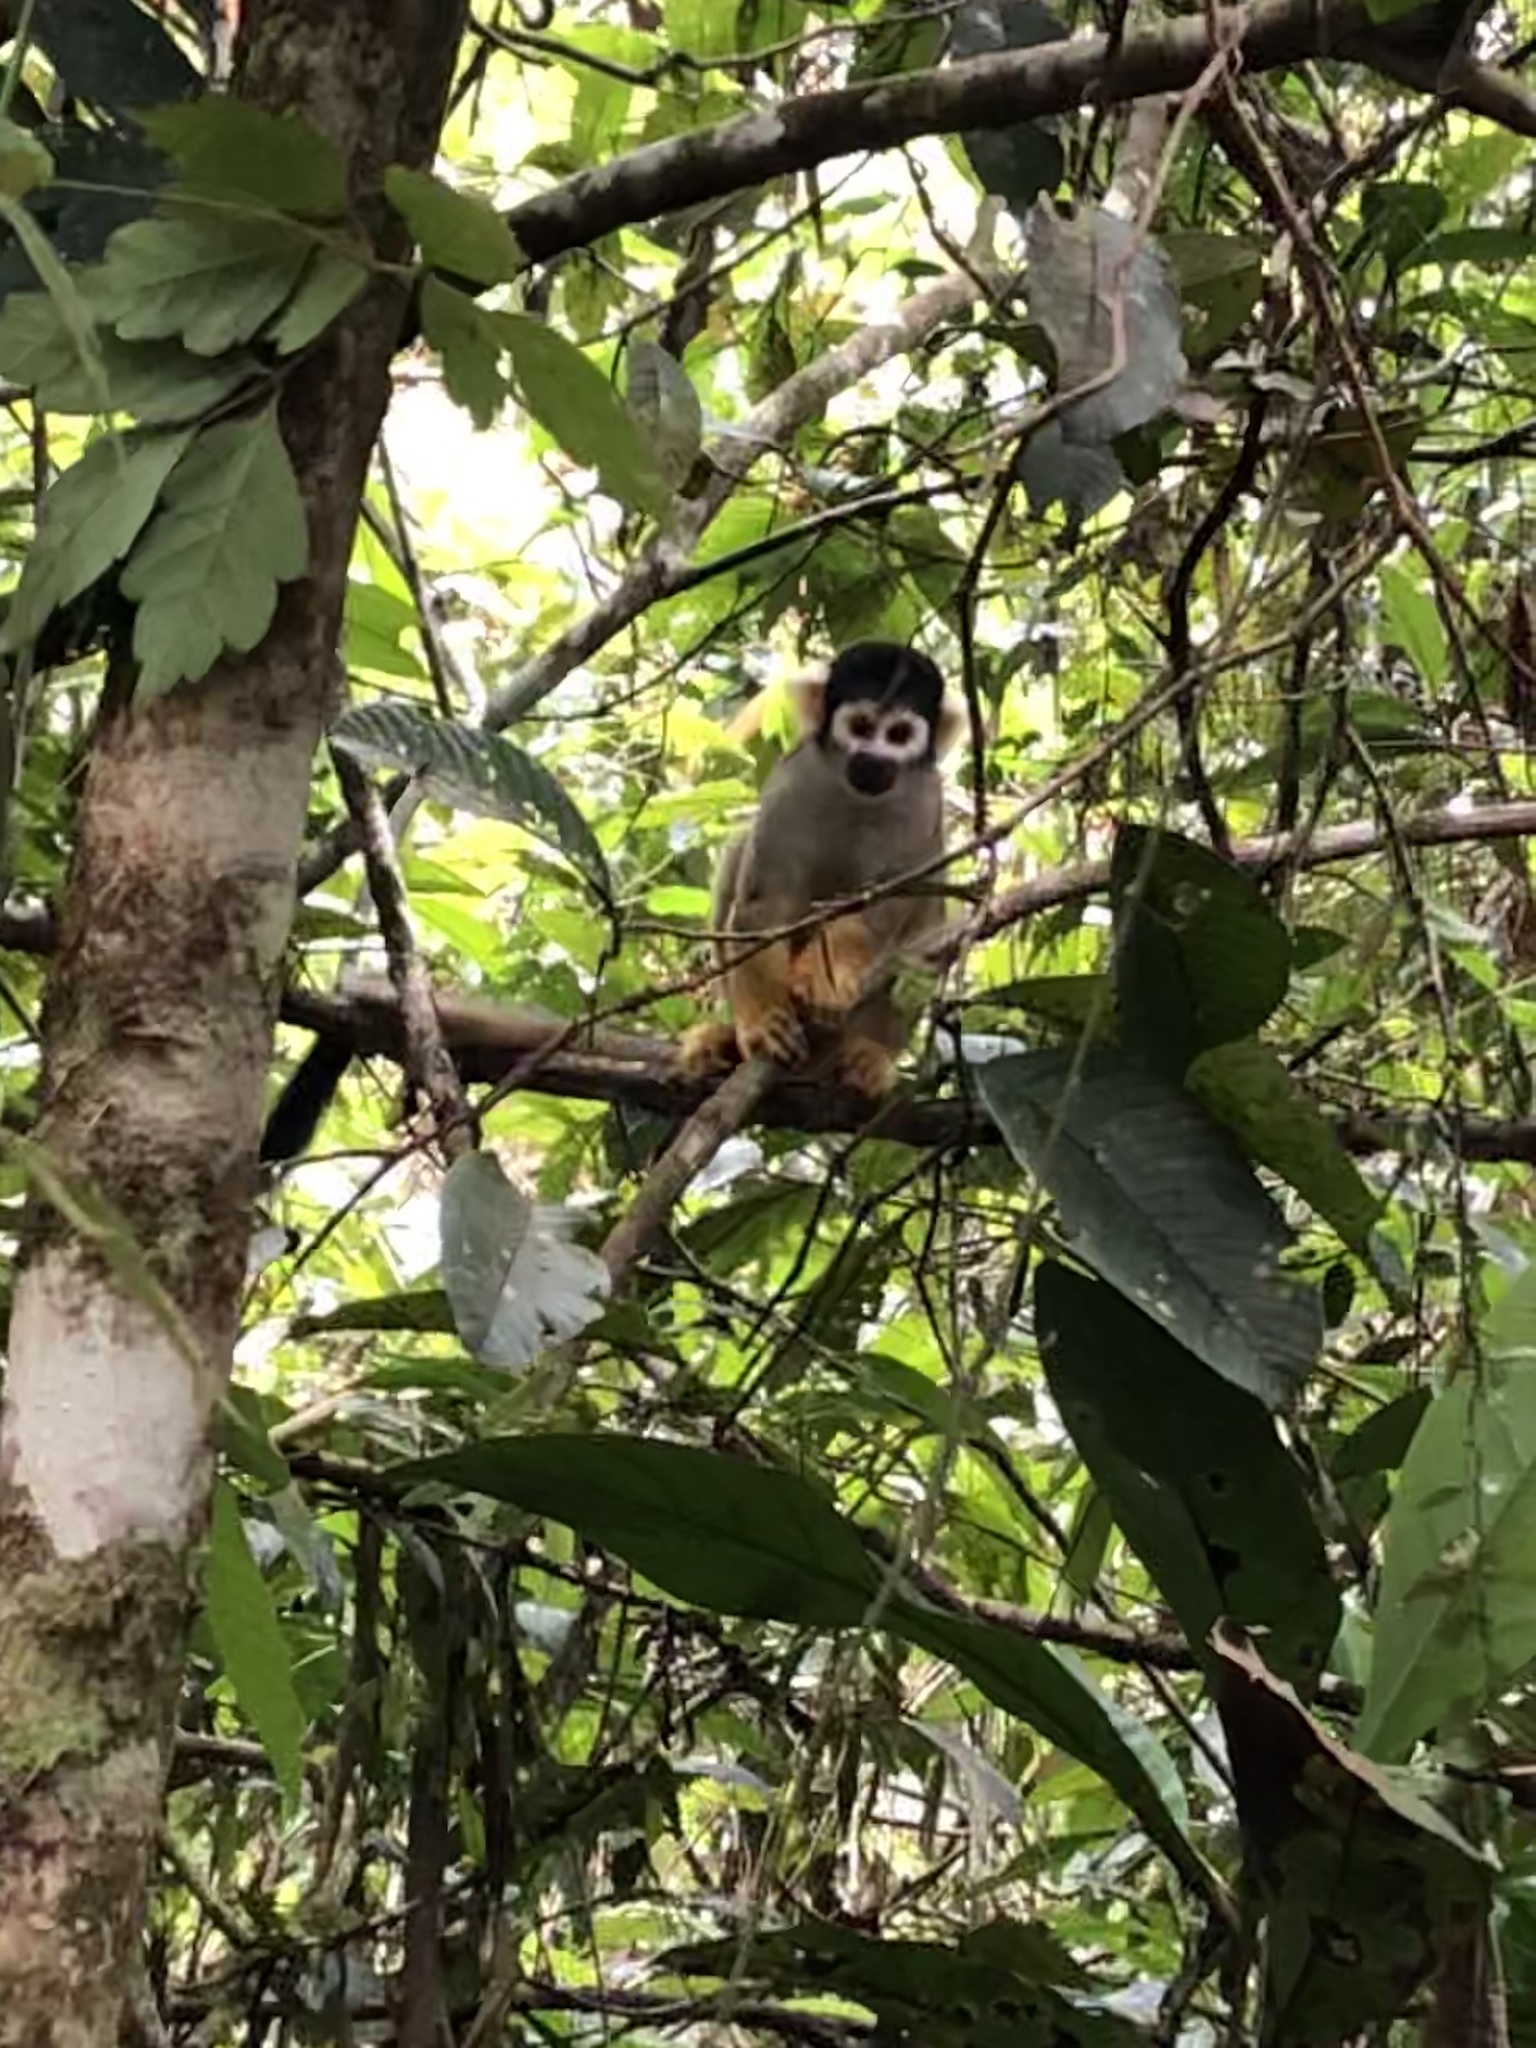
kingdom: Animalia
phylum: Chordata
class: Mammalia
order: Primates
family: Cebidae
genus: Saimiri
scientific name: Saimiri boliviensis
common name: Black-capped squirrel monkey
